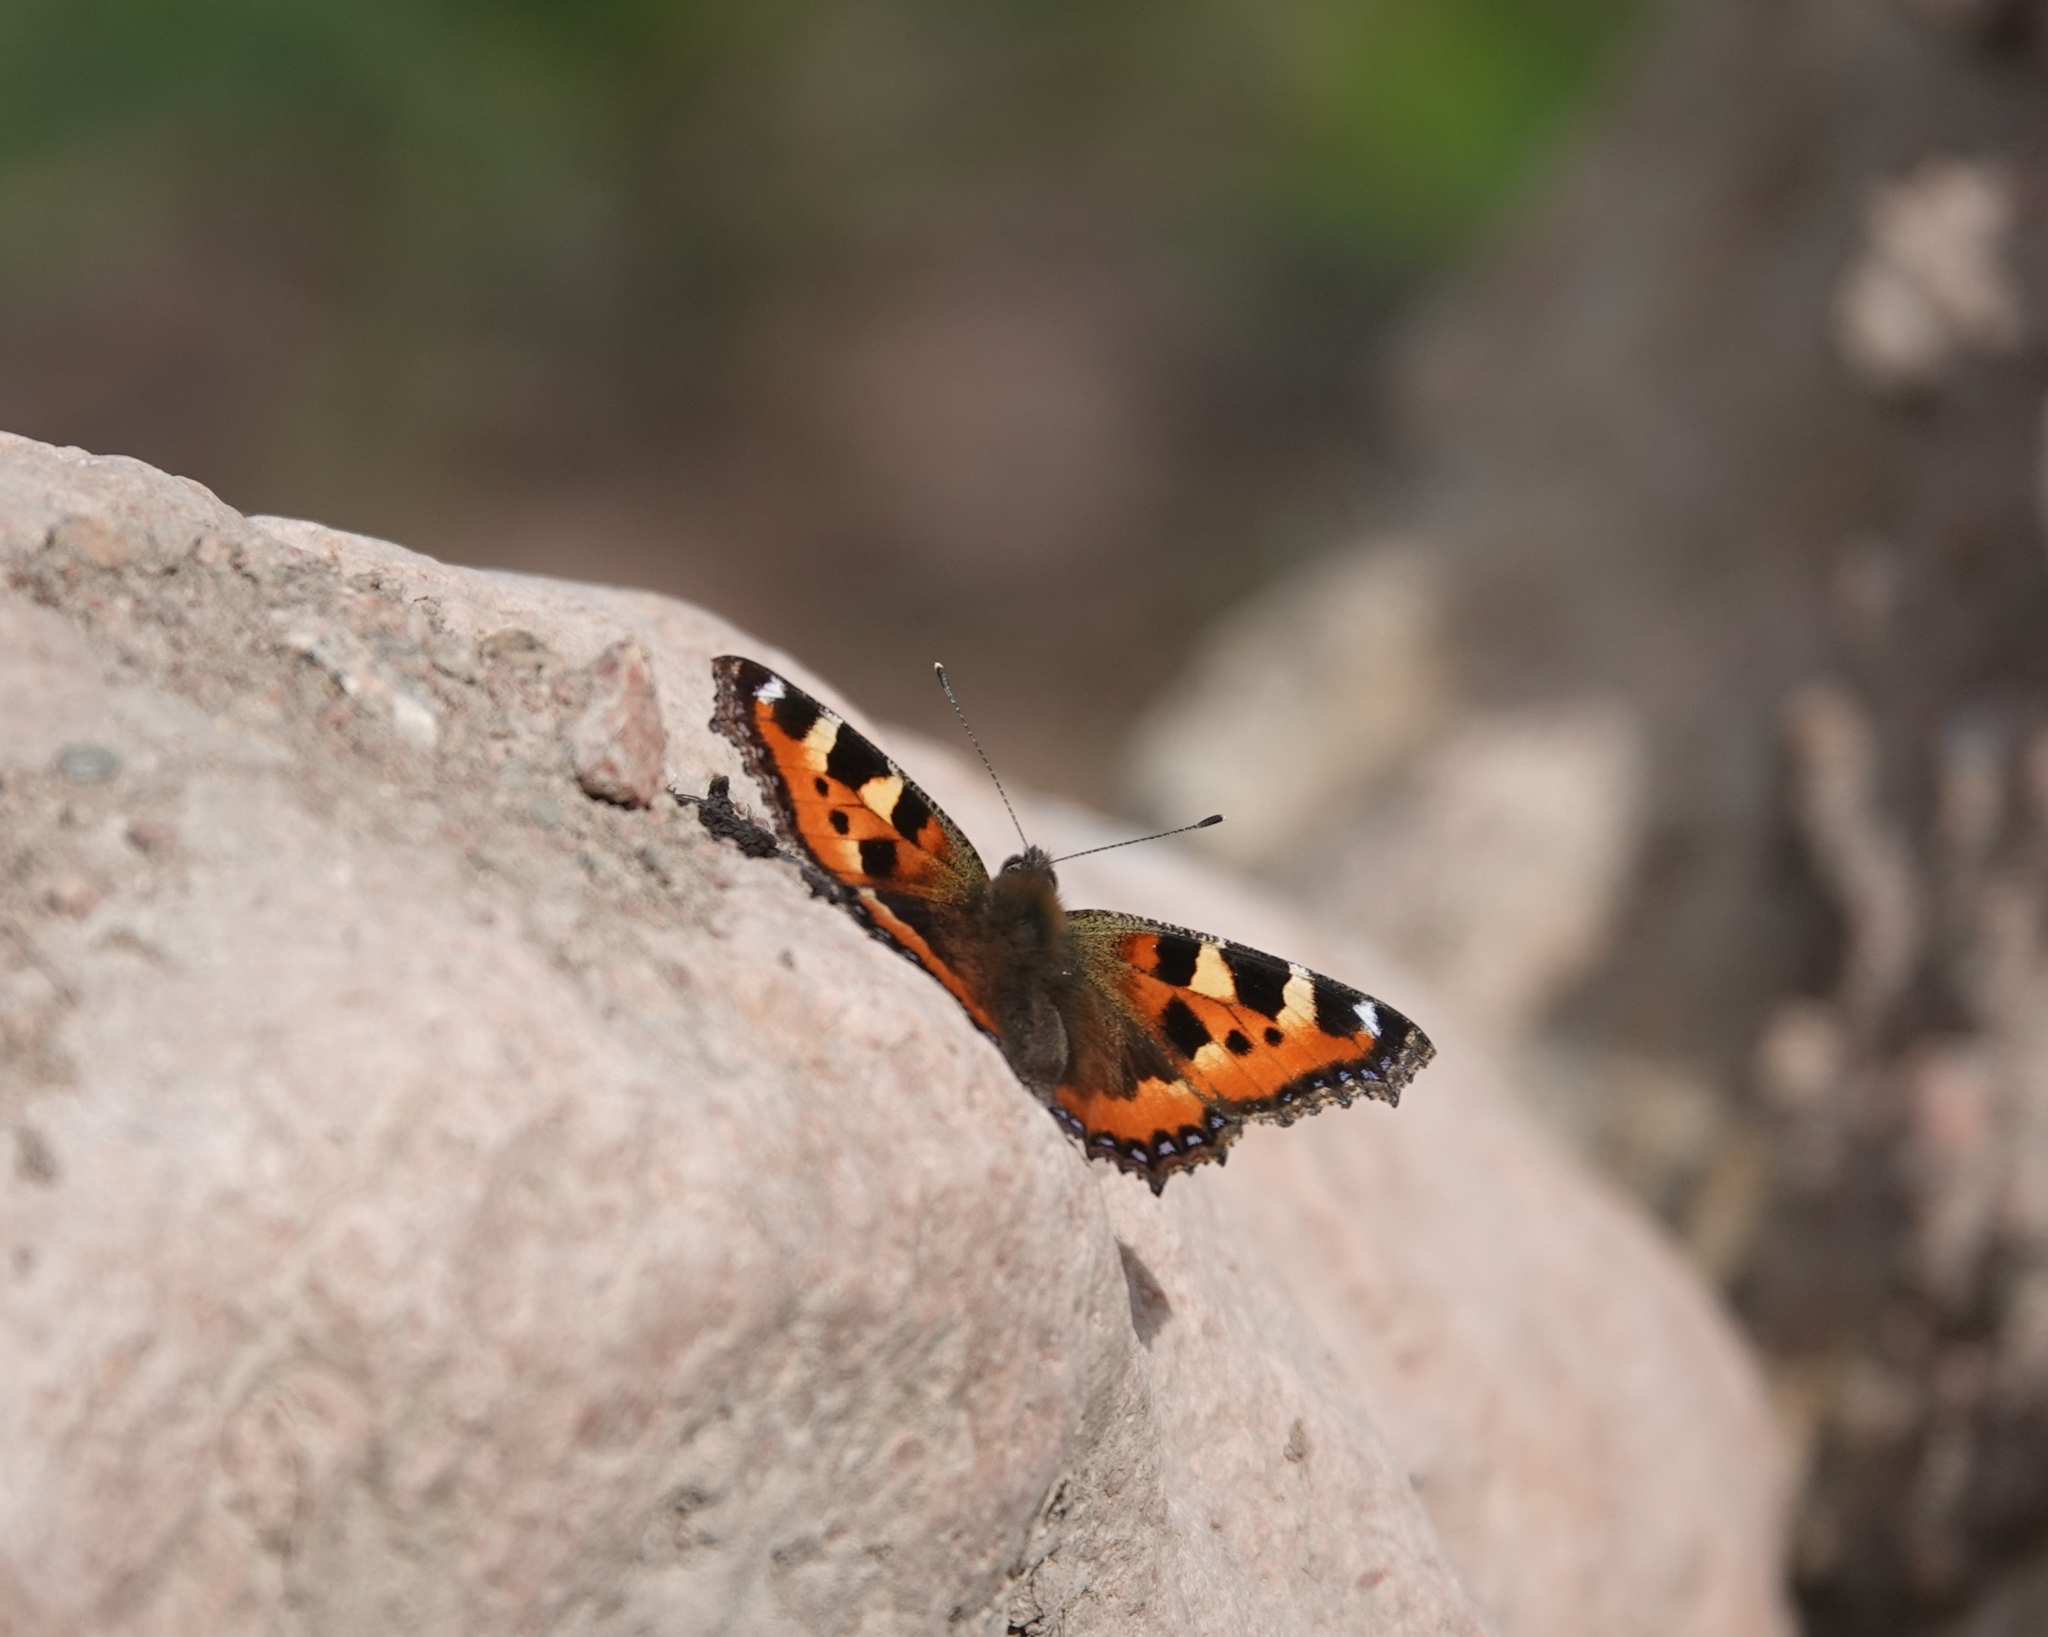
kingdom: Animalia
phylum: Arthropoda
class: Insecta
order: Lepidoptera
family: Nymphalidae
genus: Aglais
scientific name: Aglais urticae
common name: Small tortoiseshell
